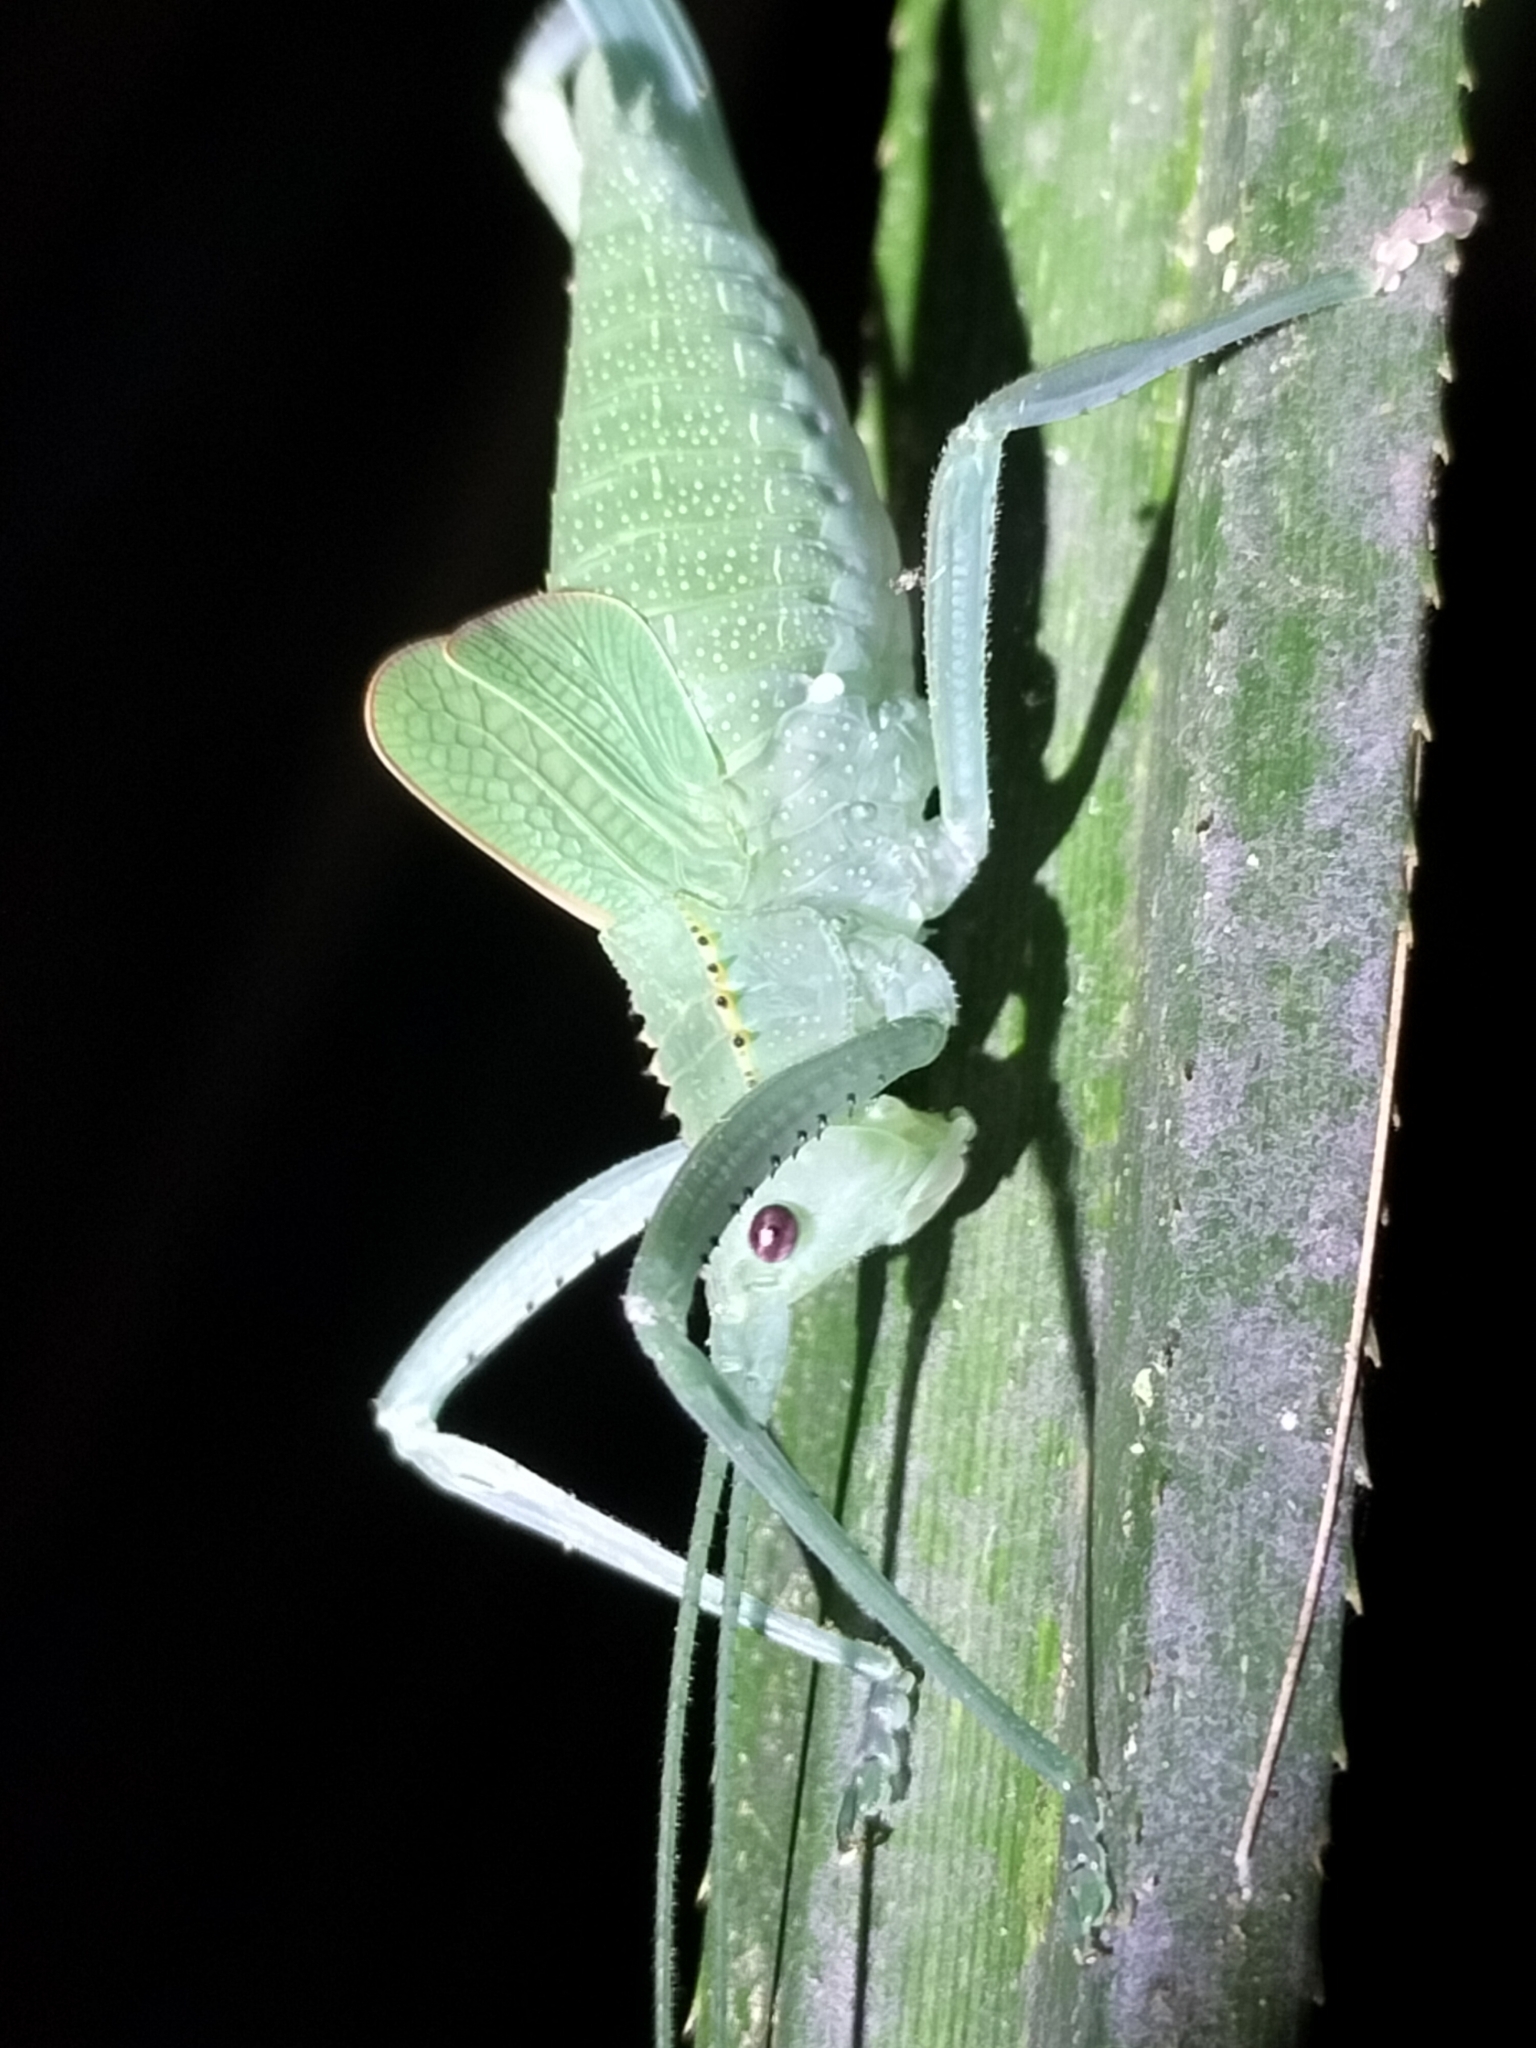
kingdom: Animalia
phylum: Arthropoda
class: Insecta
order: Orthoptera
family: Tettigoniidae
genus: Mastighaphoides
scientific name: Mastighaphoides vaginalis
